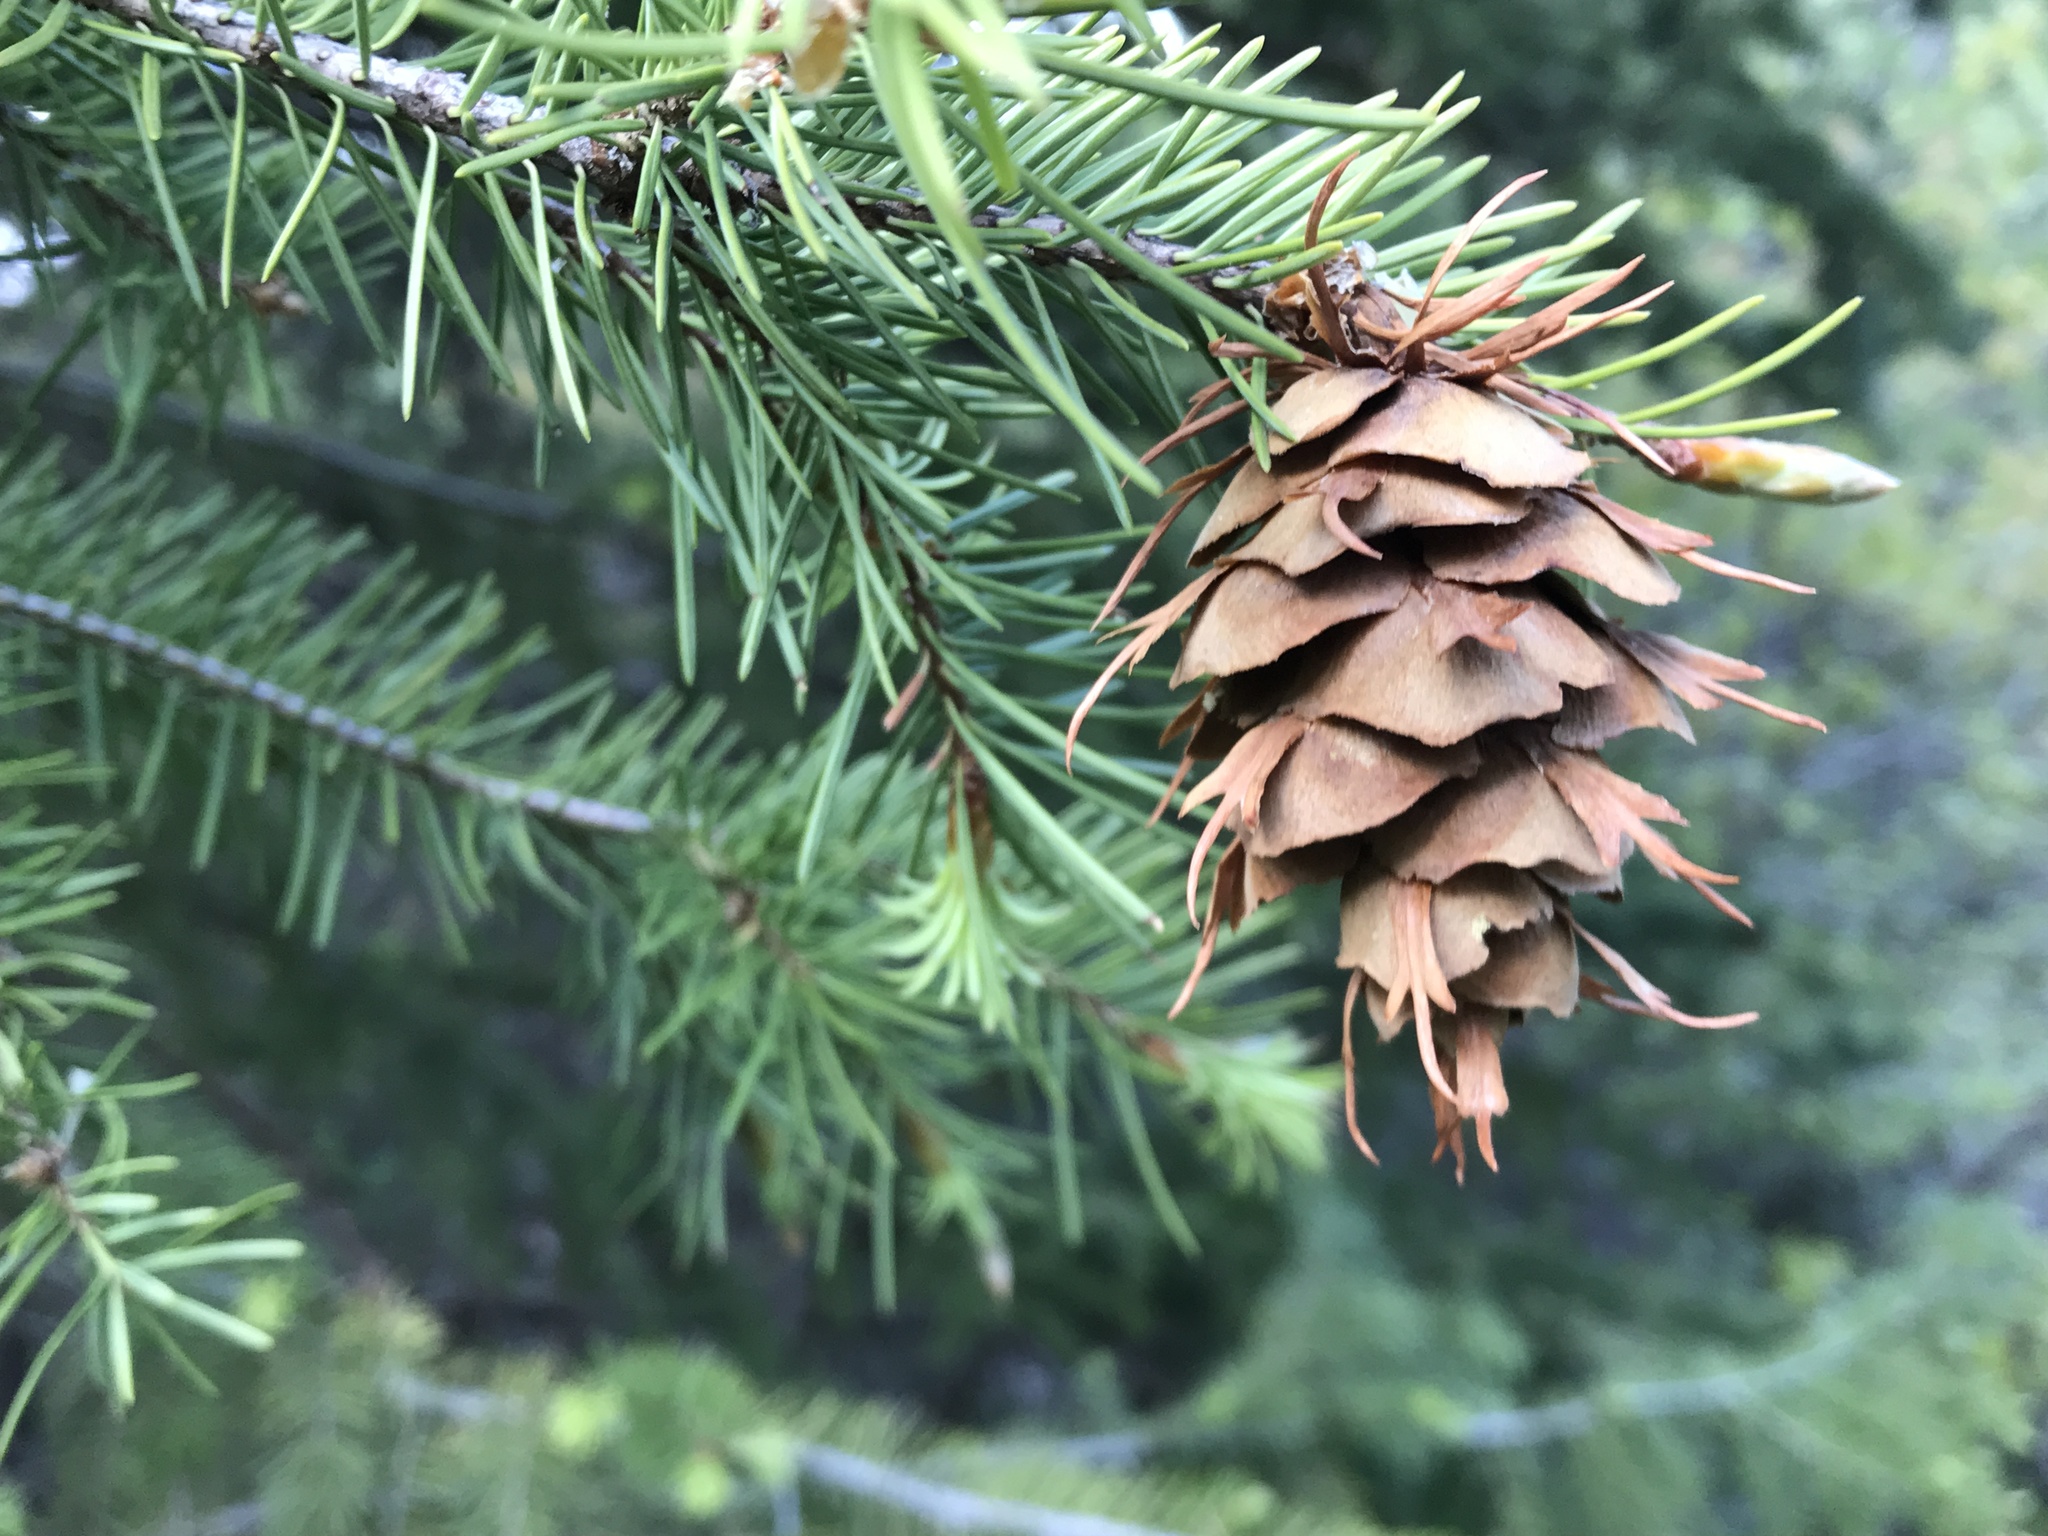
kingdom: Plantae
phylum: Tracheophyta
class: Pinopsida
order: Pinales
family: Pinaceae
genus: Pseudotsuga
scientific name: Pseudotsuga menziesii
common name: Douglas fir
